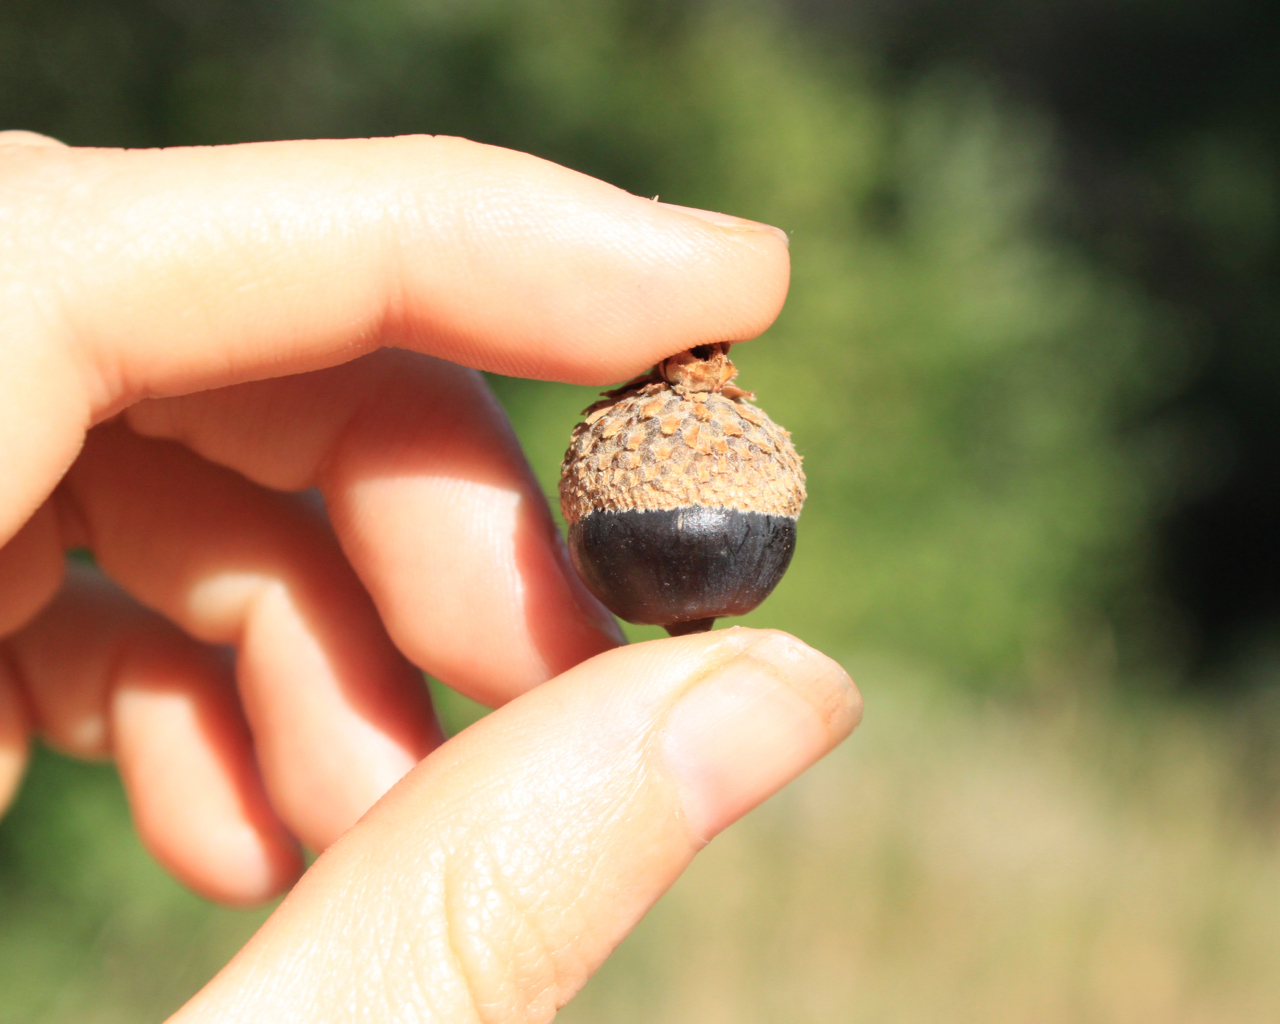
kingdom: Plantae
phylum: Tracheophyta
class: Magnoliopsida
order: Fagales
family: Fagaceae
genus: Quercus
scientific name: Quercus garryana
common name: Garry oak
